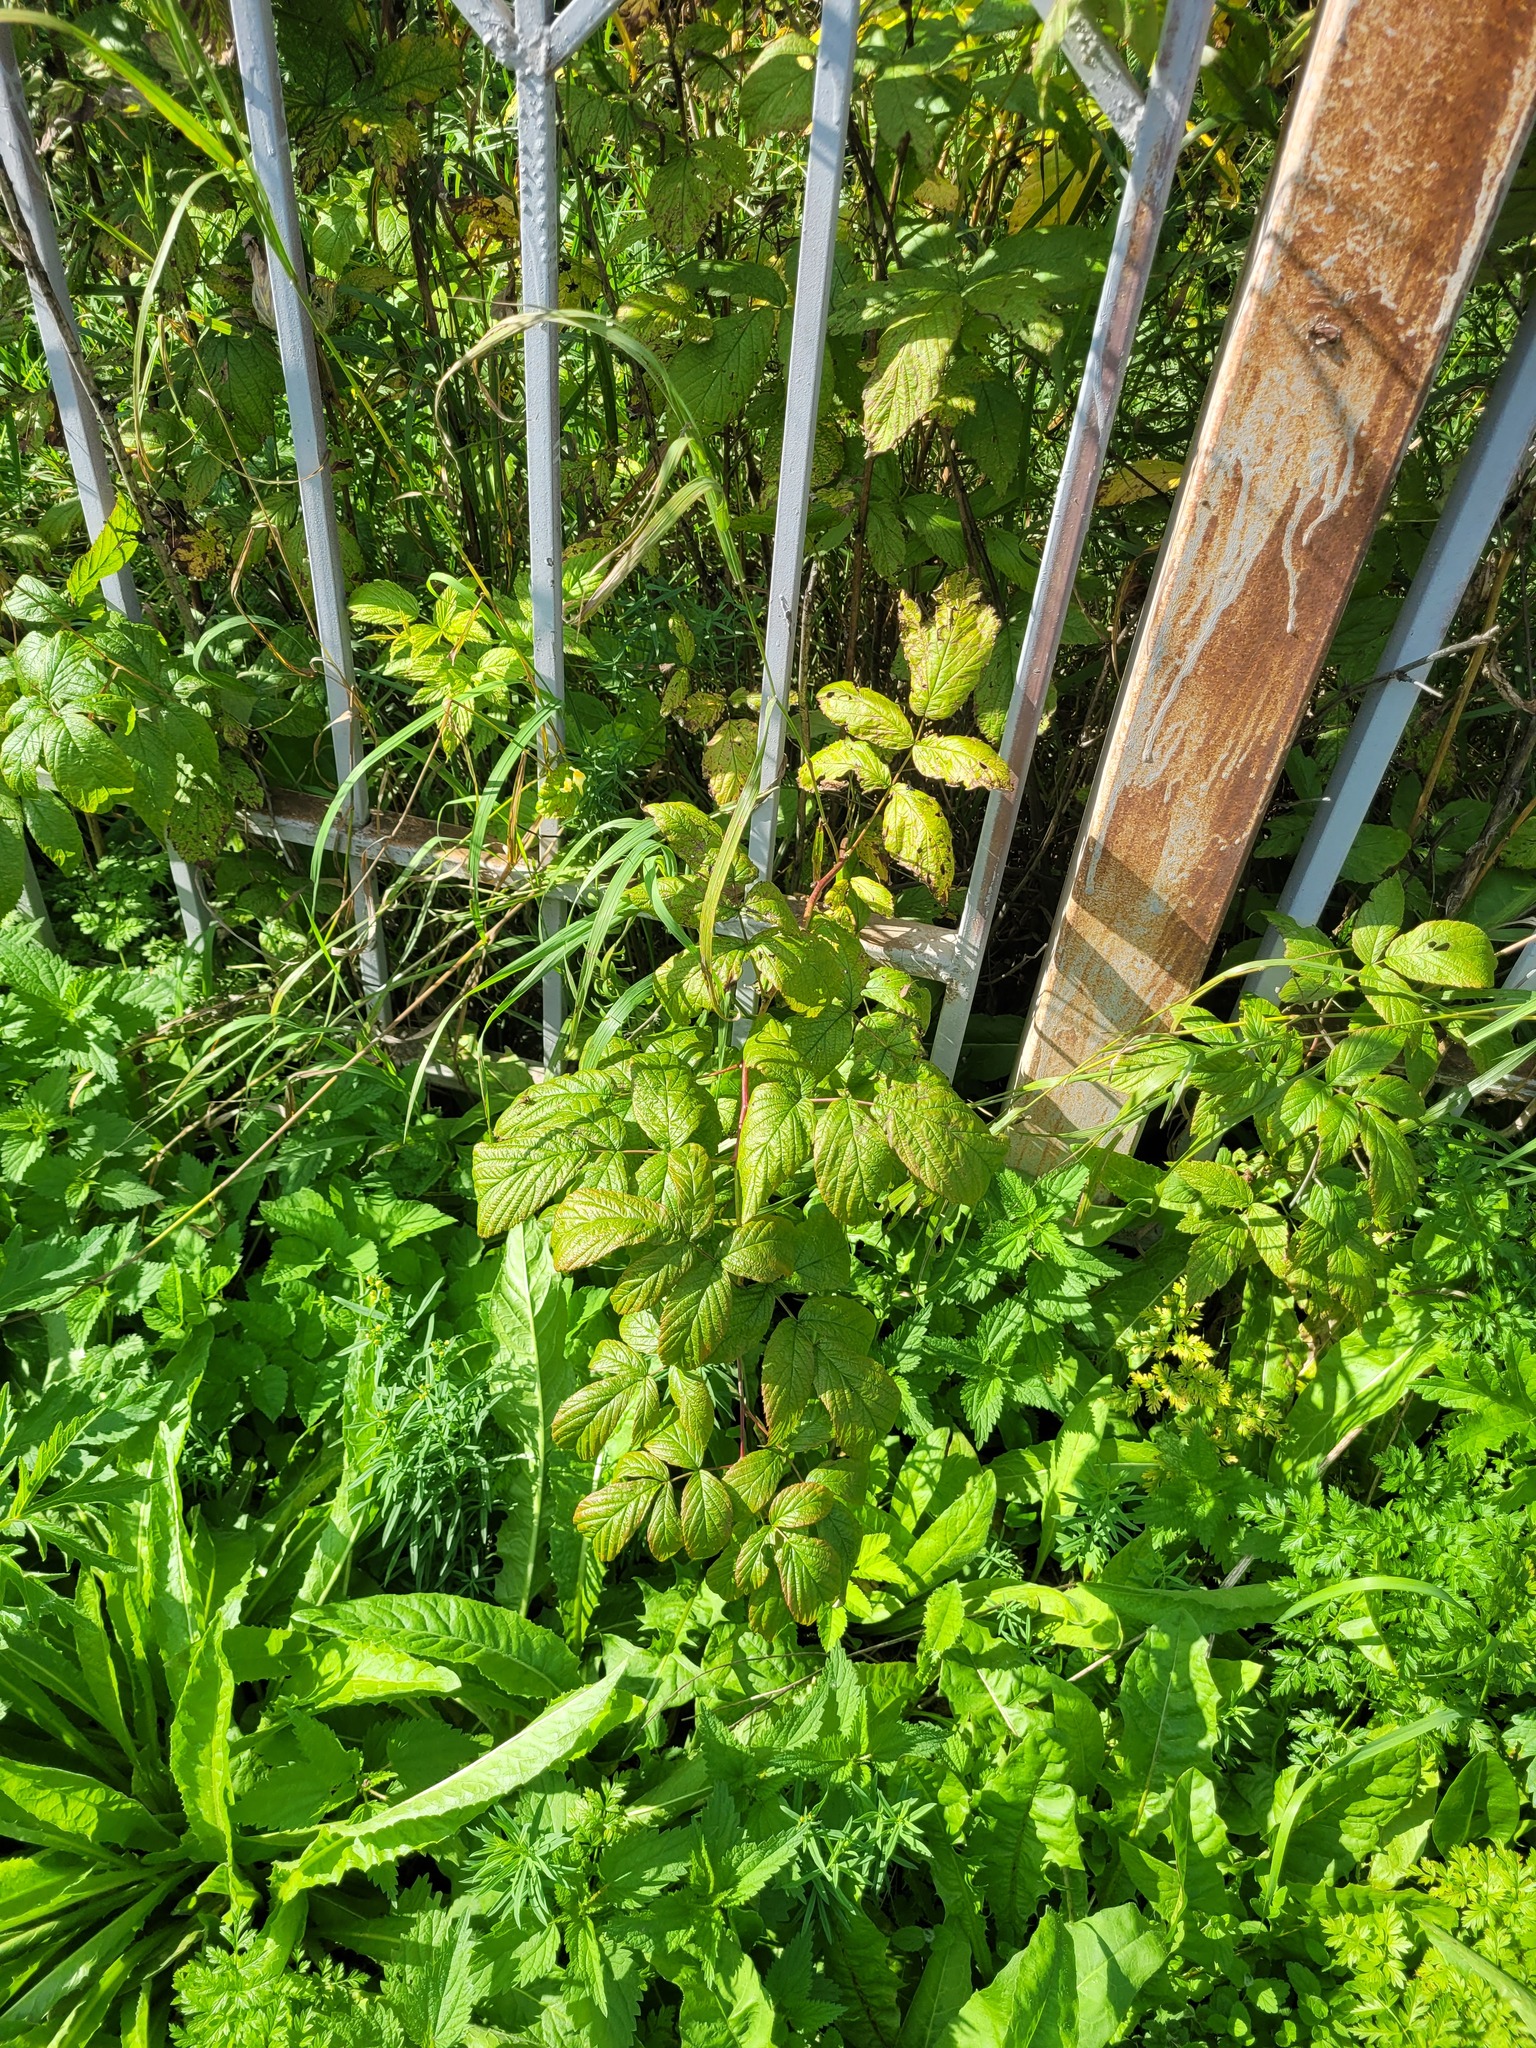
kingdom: Plantae
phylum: Tracheophyta
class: Magnoliopsida
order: Rosales
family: Rosaceae
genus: Rubus
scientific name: Rubus idaeus
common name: Raspberry
